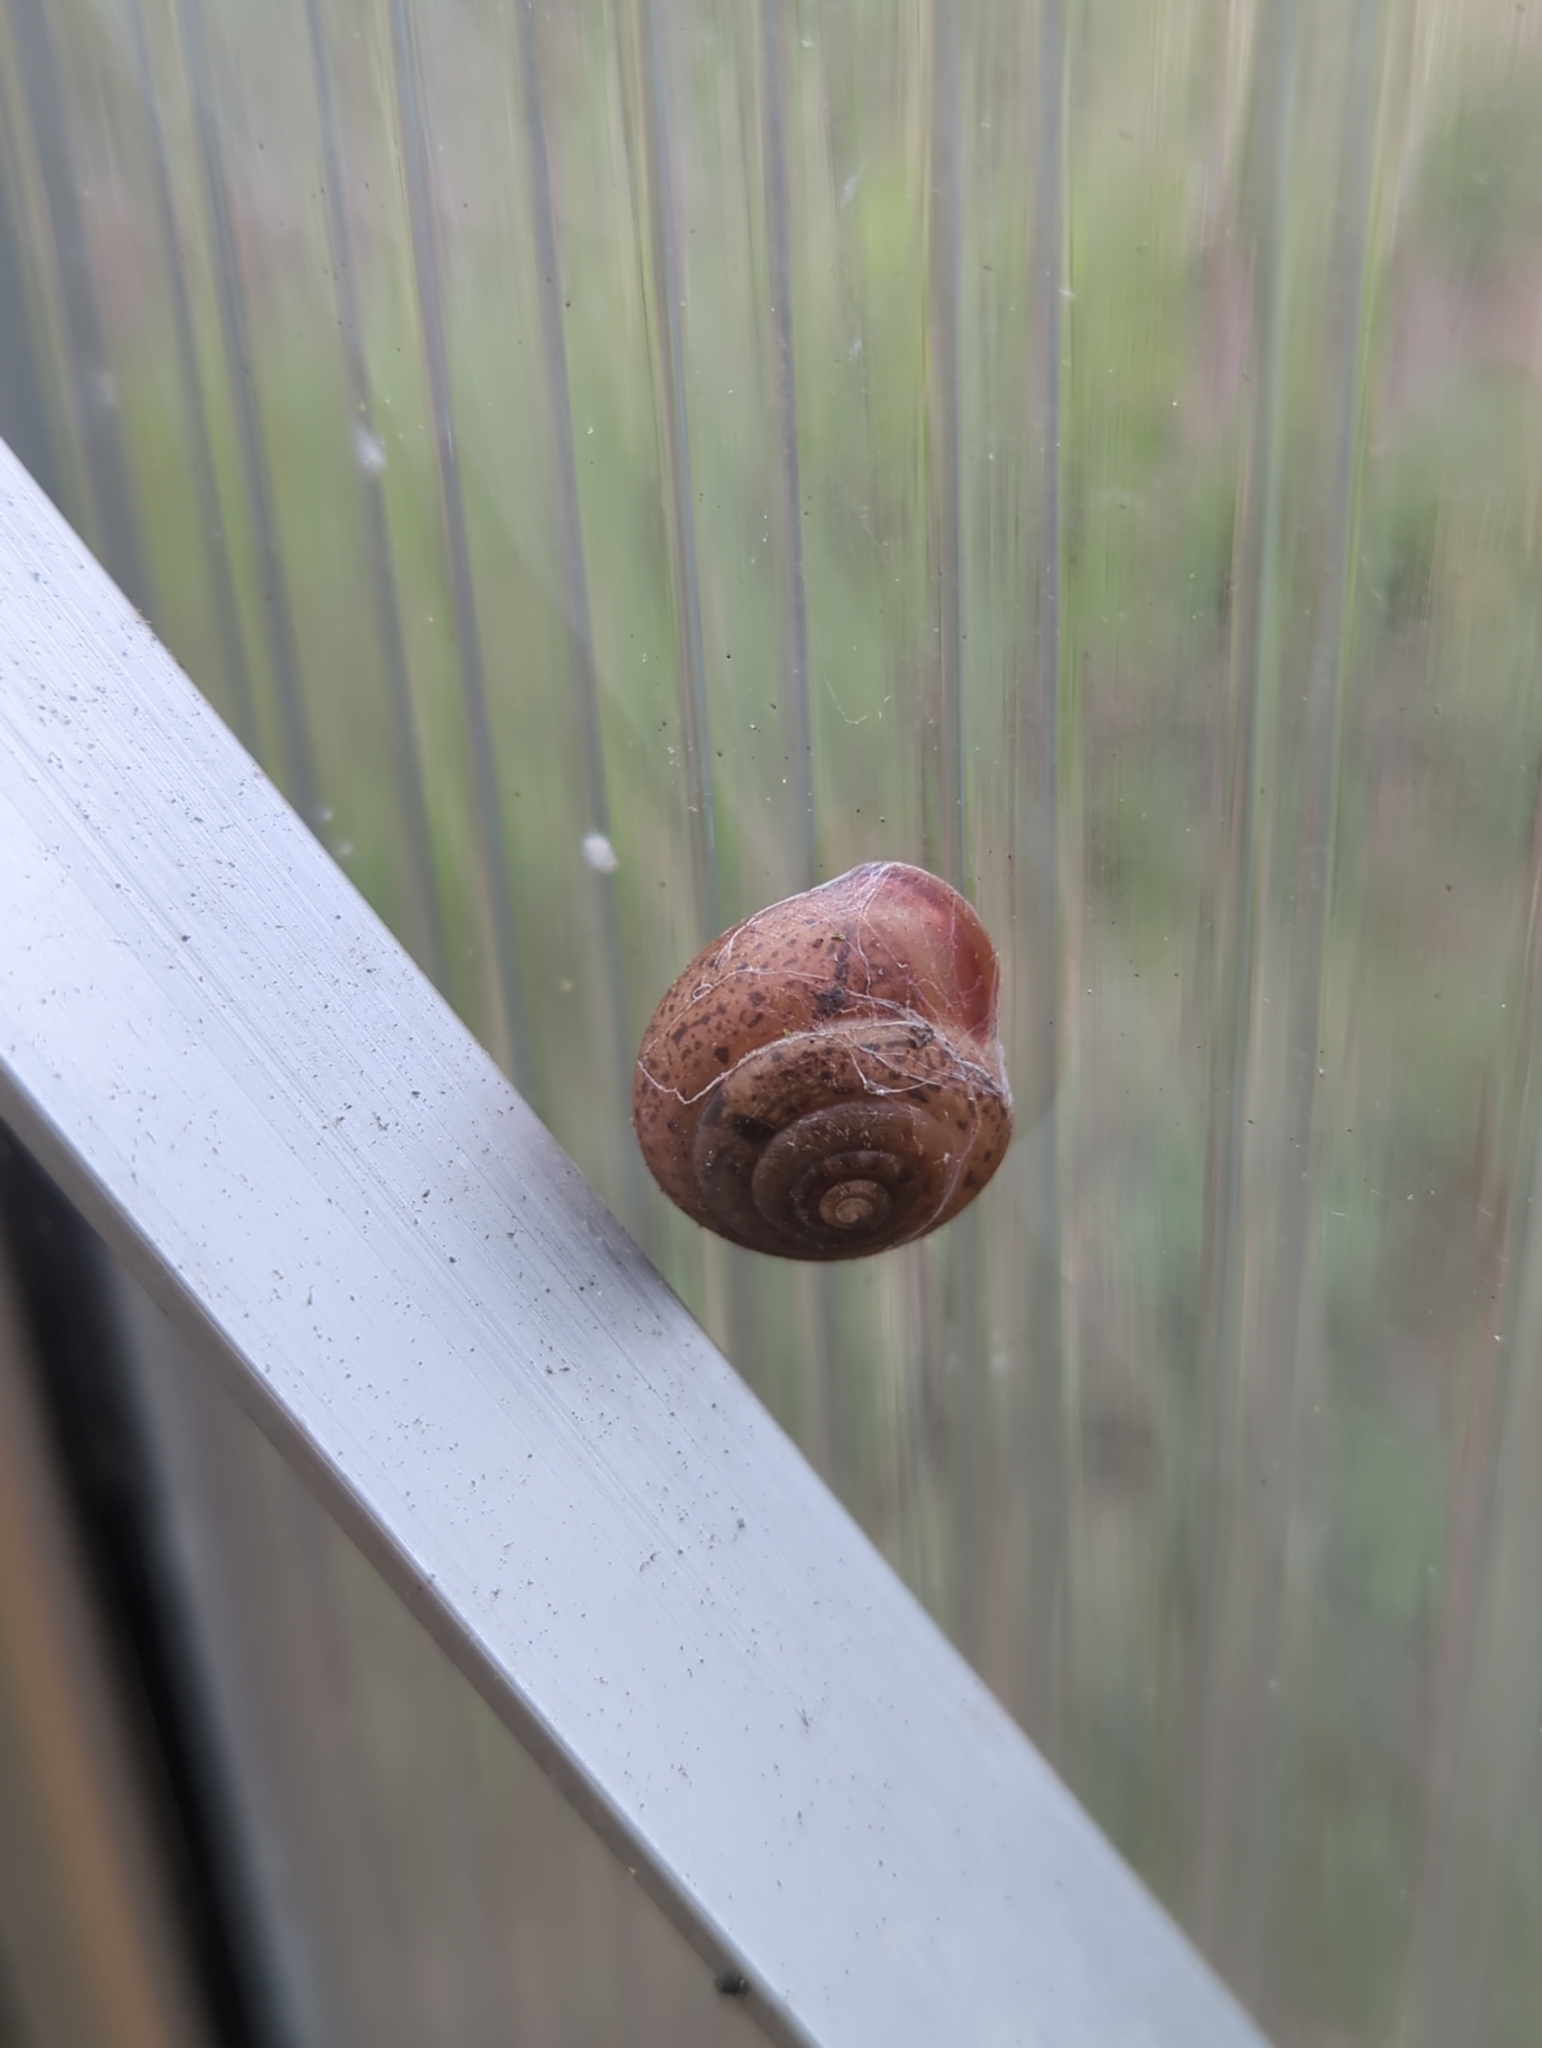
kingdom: Animalia
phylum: Mollusca
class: Gastropoda
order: Stylommatophora
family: Hygromiidae
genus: Monachoides
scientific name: Monachoides incarnatus
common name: Incarnate snail
